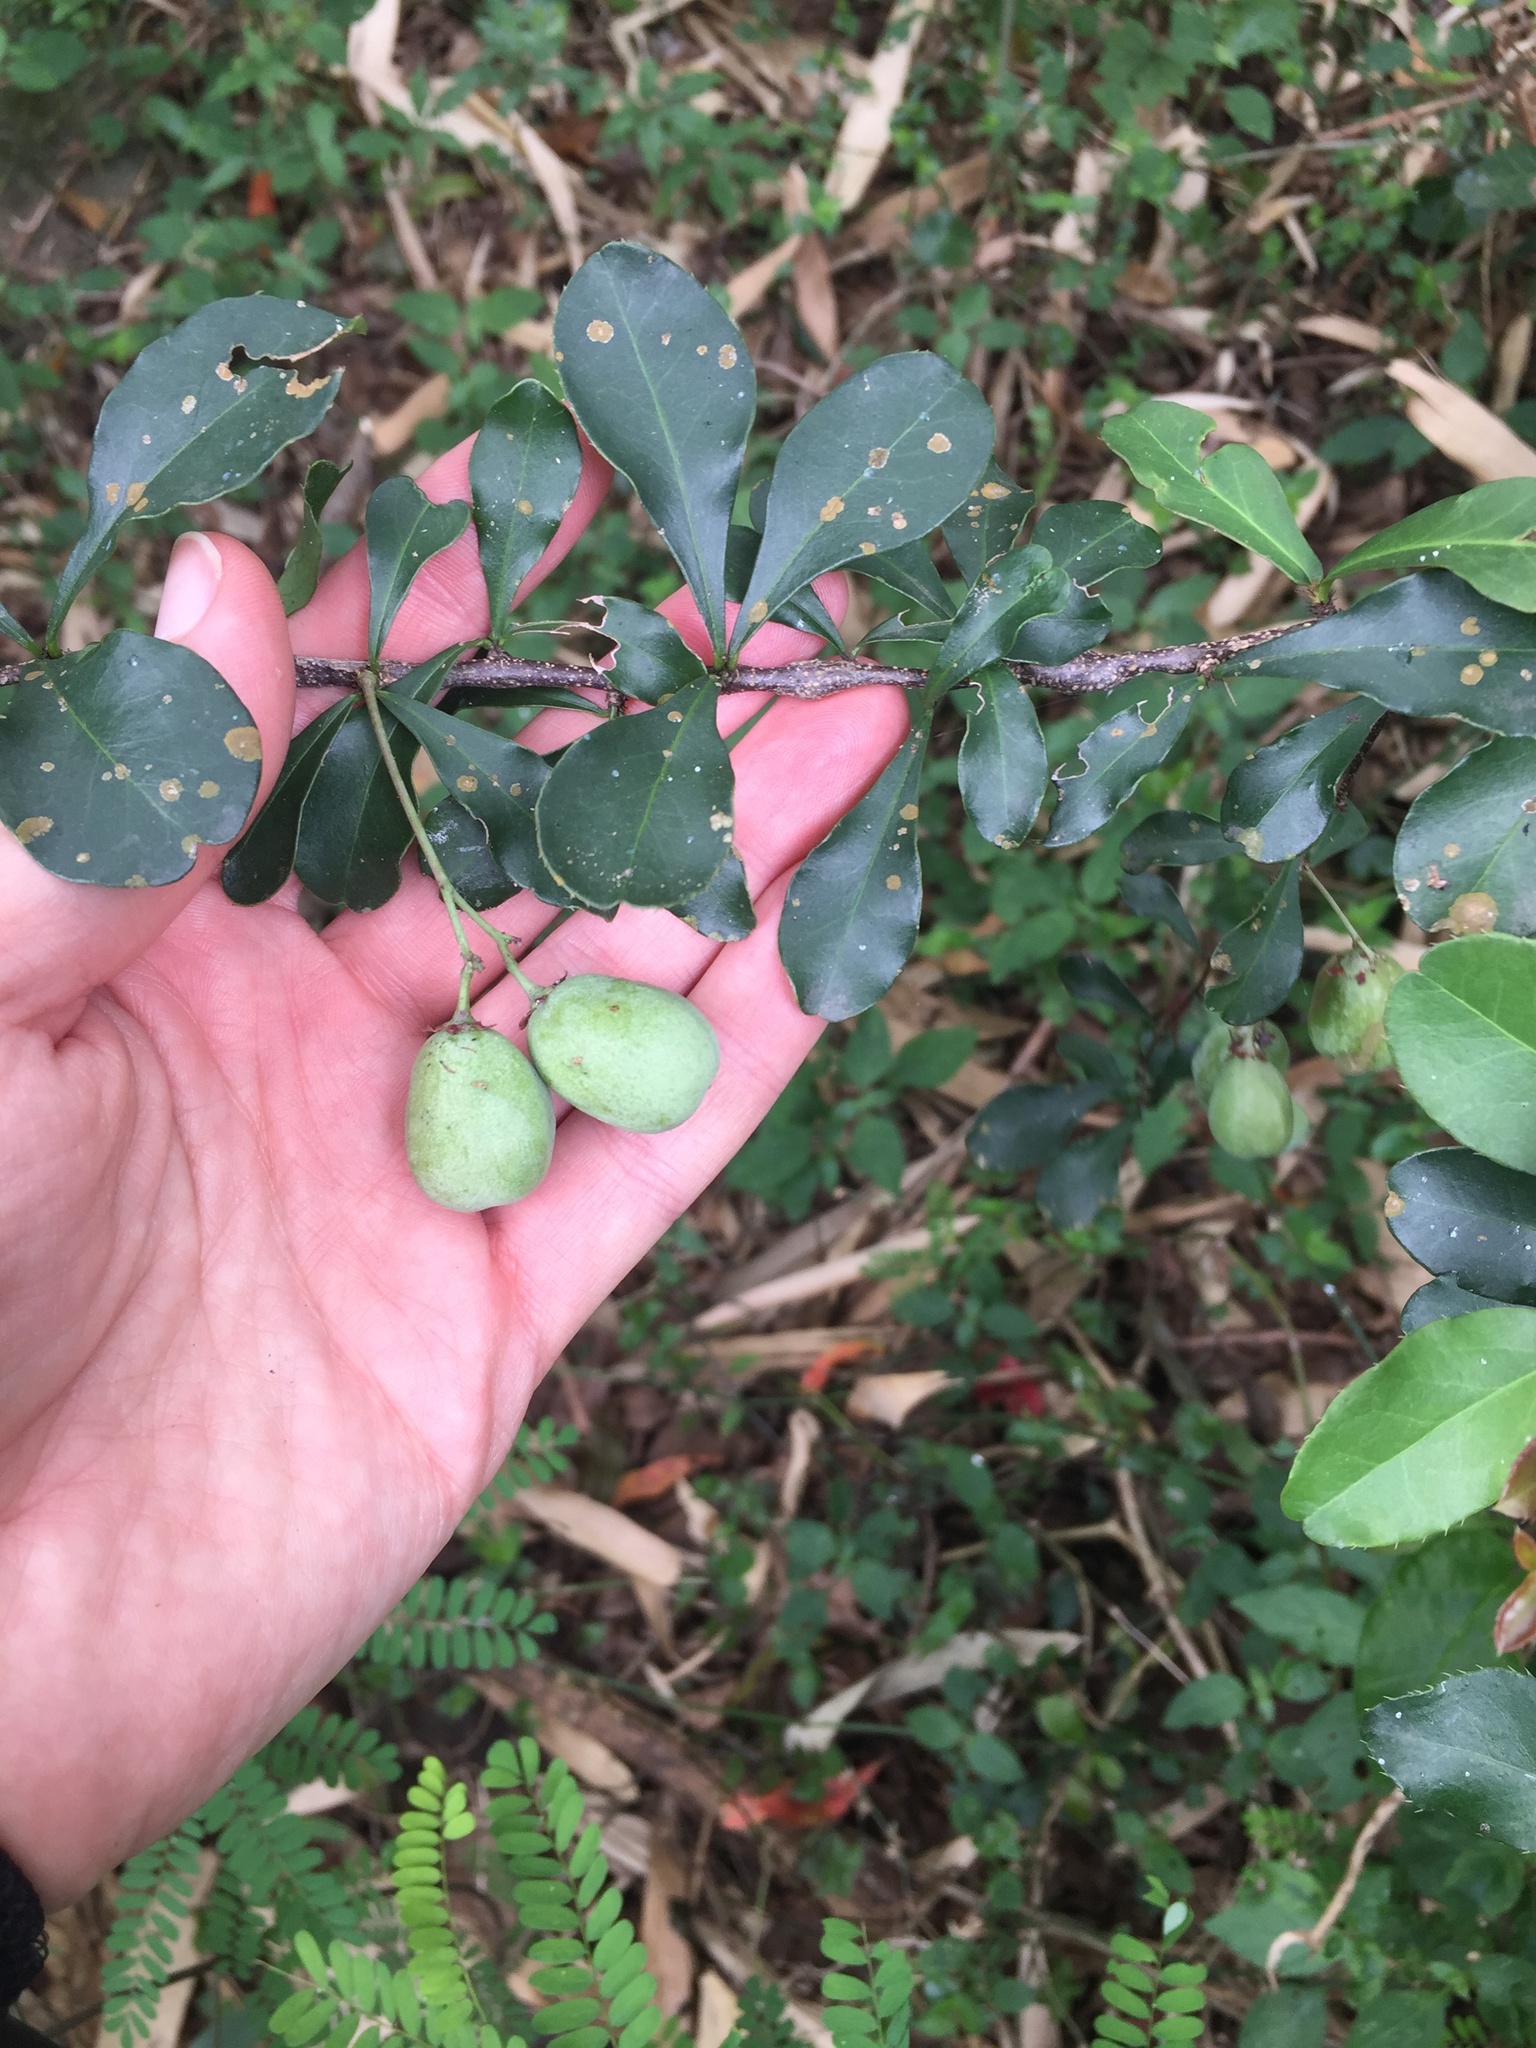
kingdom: Plantae
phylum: Tracheophyta
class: Magnoliopsida
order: Celastrales
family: Celastraceae
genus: Putterlickia
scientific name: Putterlickia verrucosa
